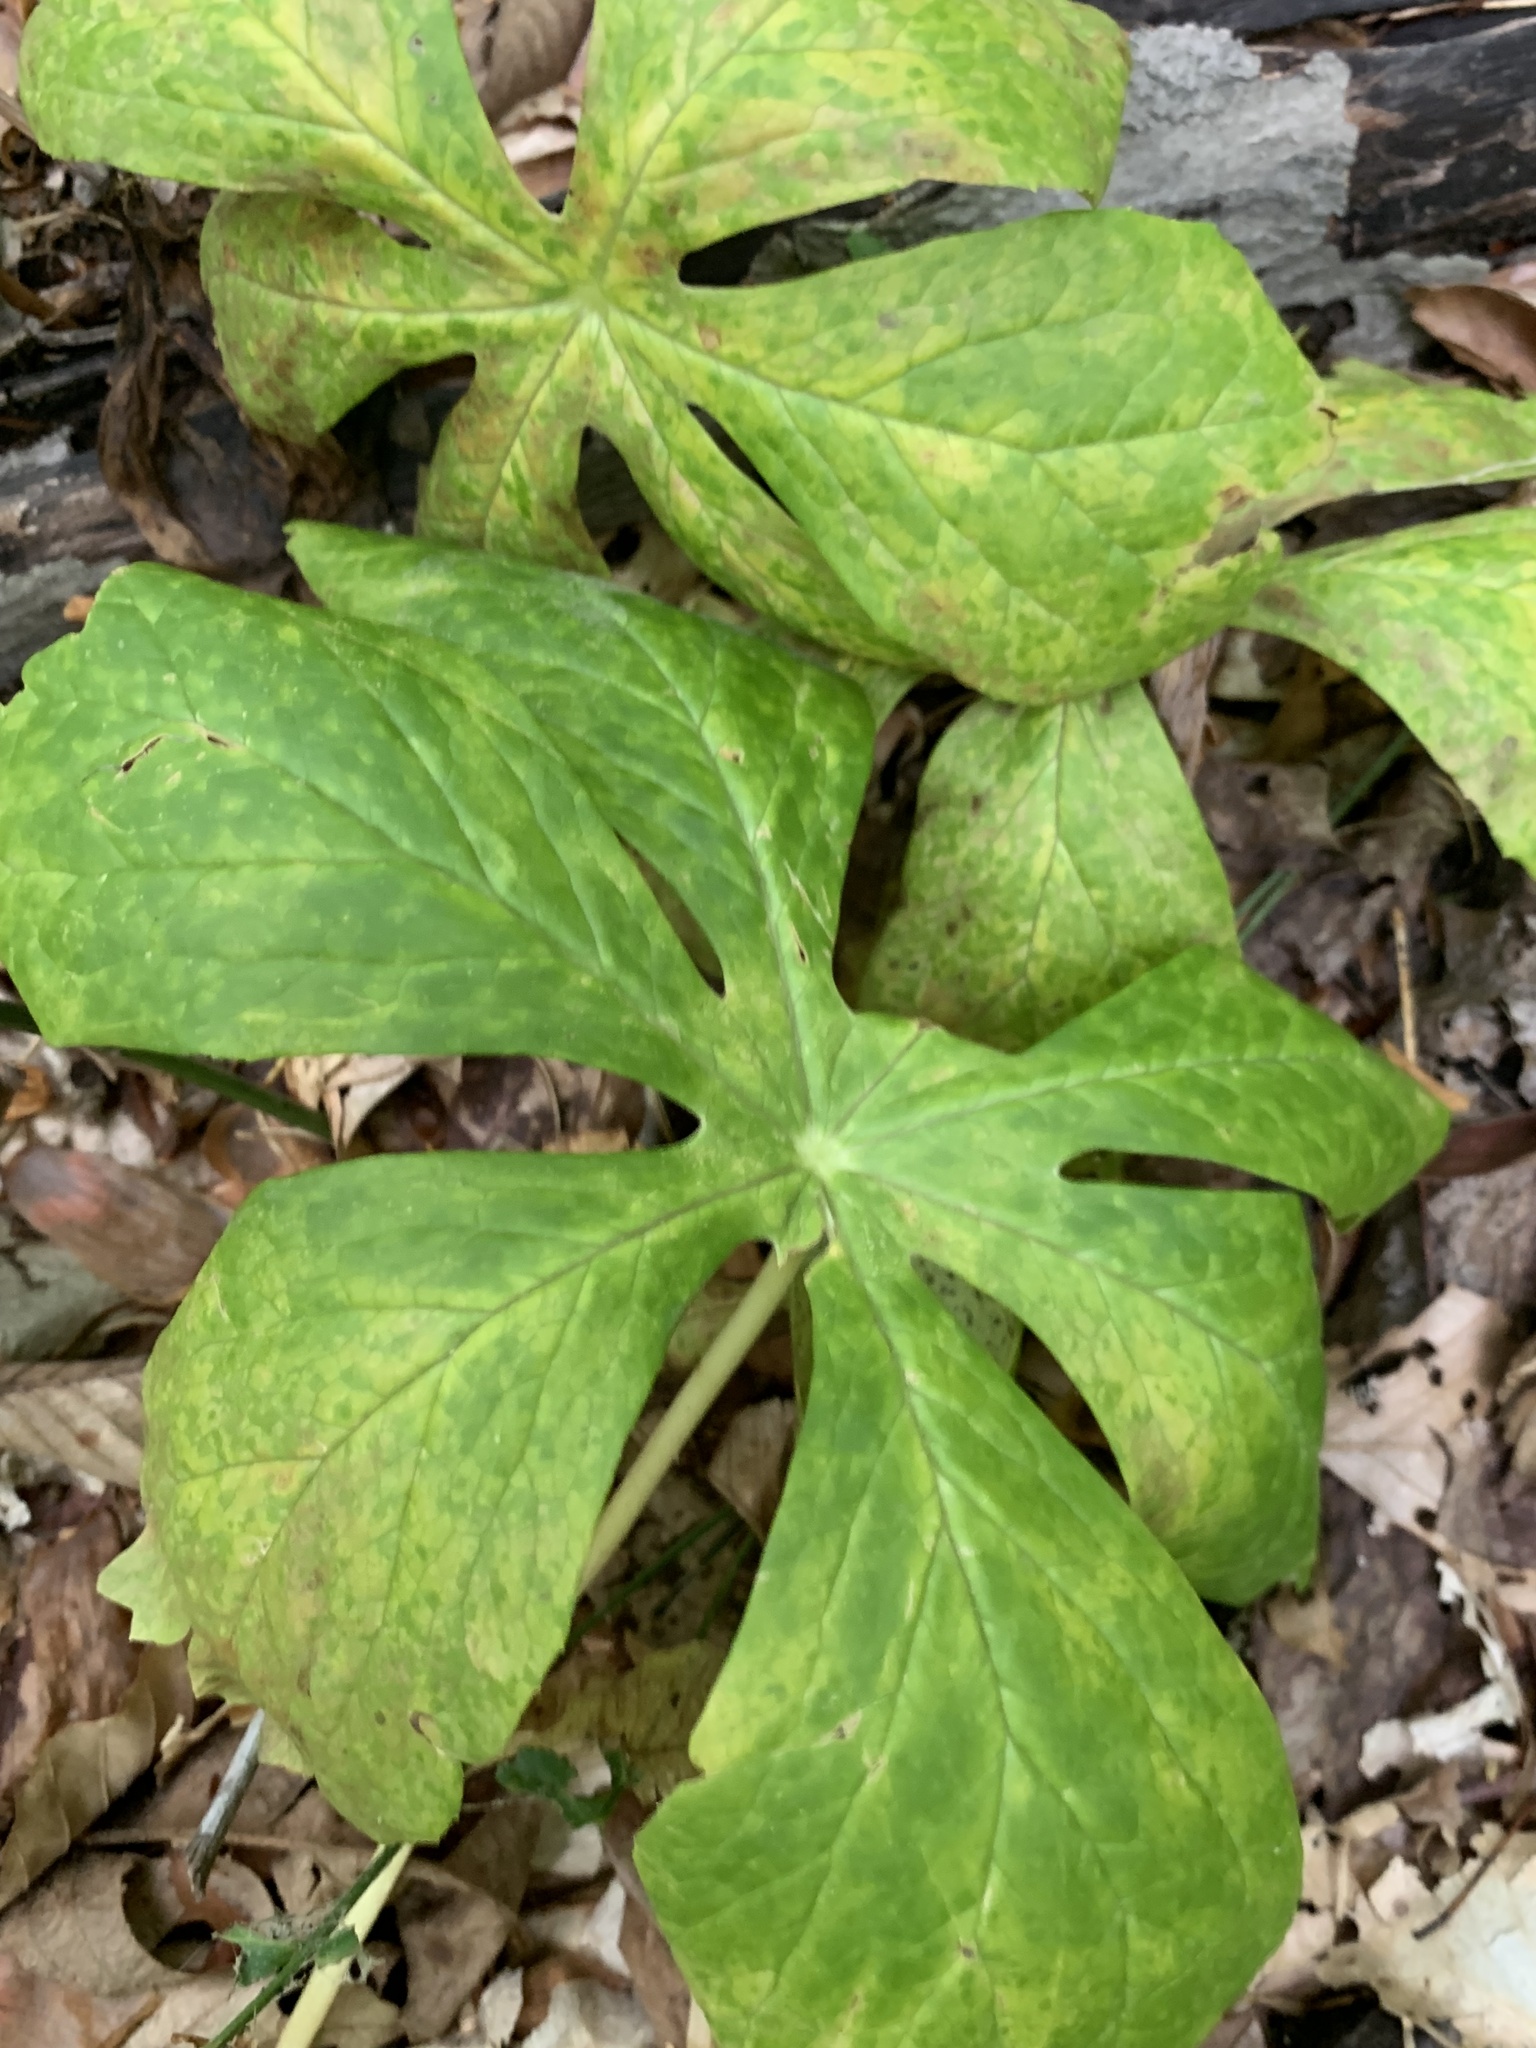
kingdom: Fungi
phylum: Basidiomycota
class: Pucciniomycetes
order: Pucciniales
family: Pucciniaceae
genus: Puccinia
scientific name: Puccinia podophylli
